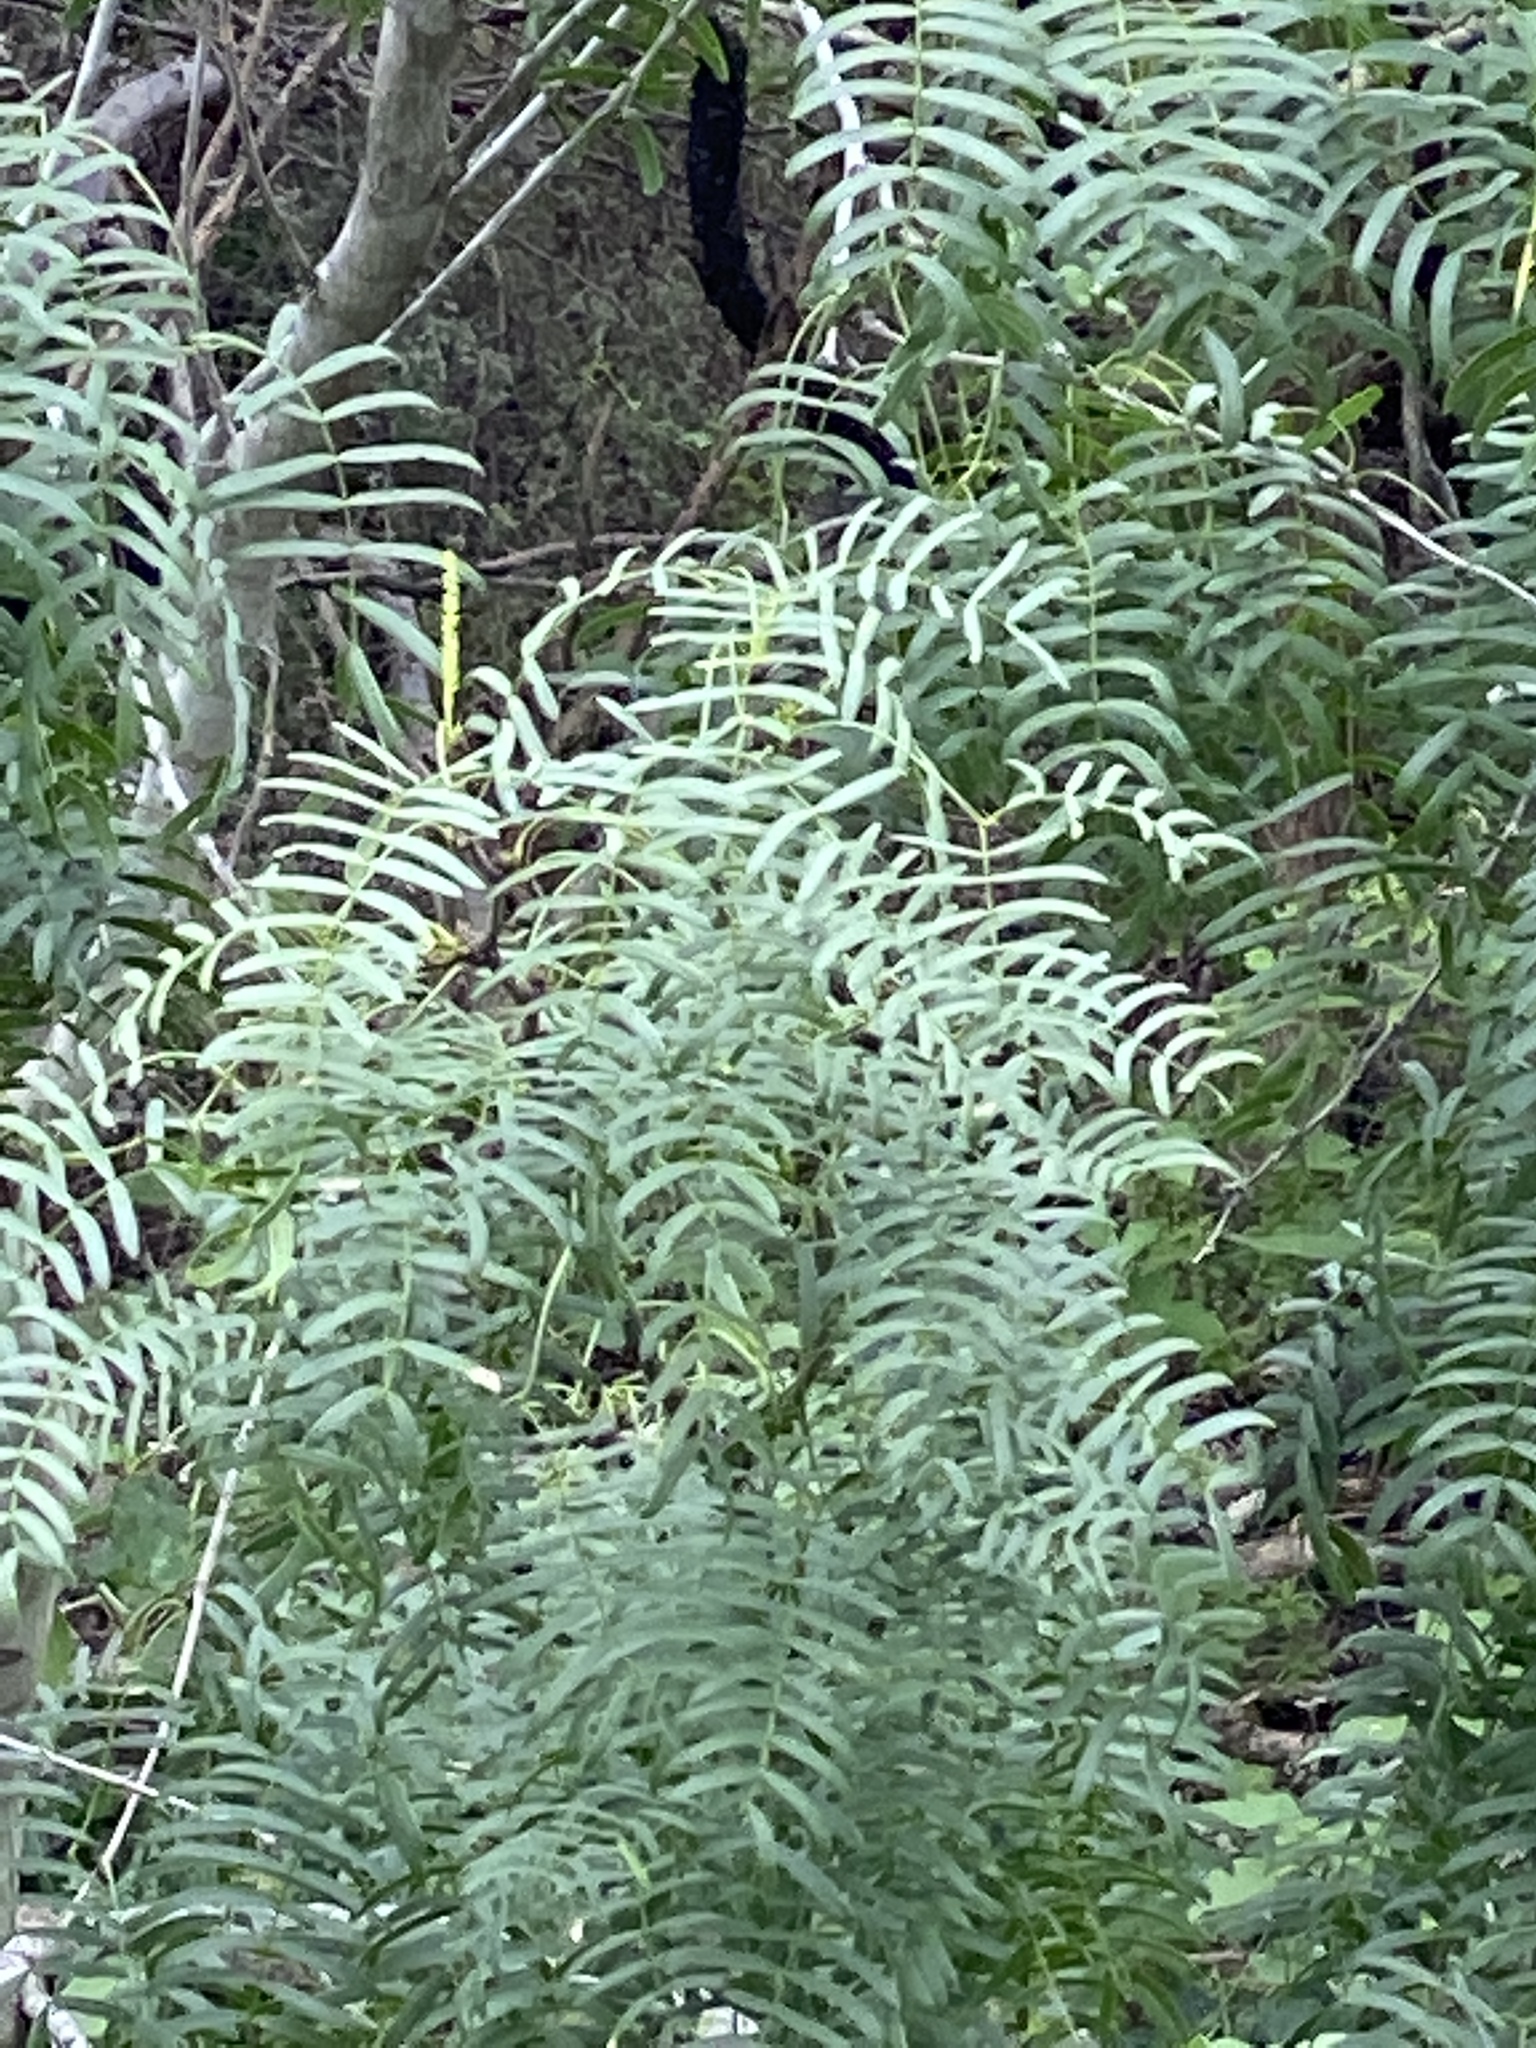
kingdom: Plantae
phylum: Tracheophyta
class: Magnoliopsida
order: Fabales
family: Fabaceae
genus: Prosopis
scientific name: Prosopis glandulosa
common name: Honey mesquite
